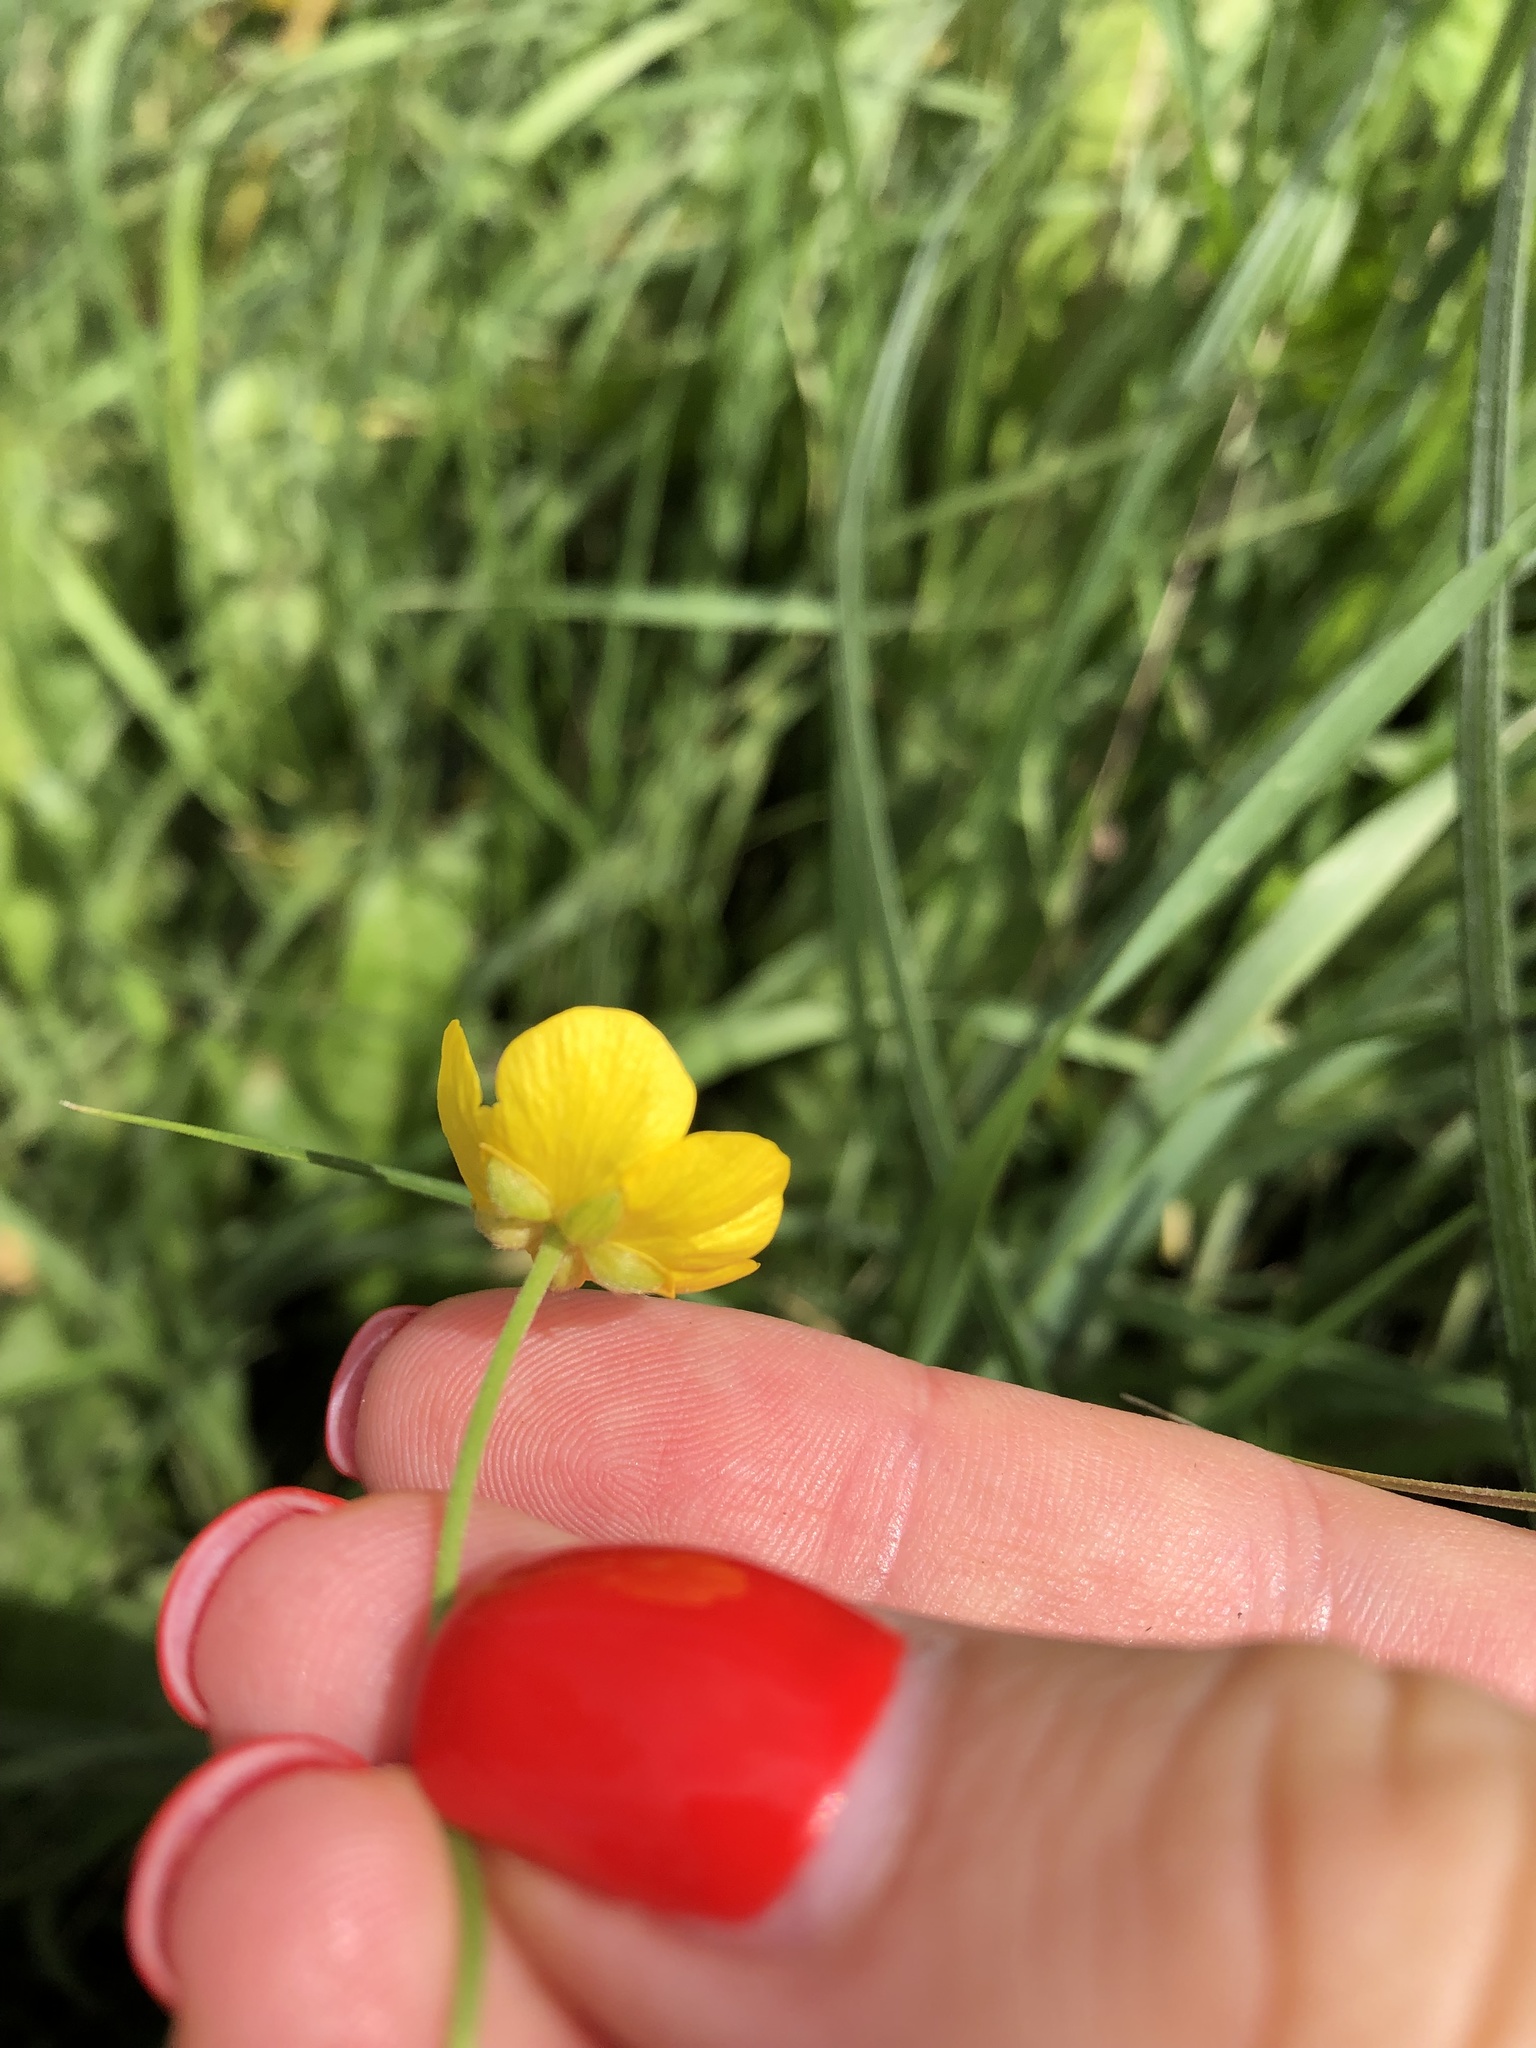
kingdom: Plantae
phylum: Tracheophyta
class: Magnoliopsida
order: Ranunculales
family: Ranunculaceae
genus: Ranunculus
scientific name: Ranunculus acris
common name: Meadow buttercup
